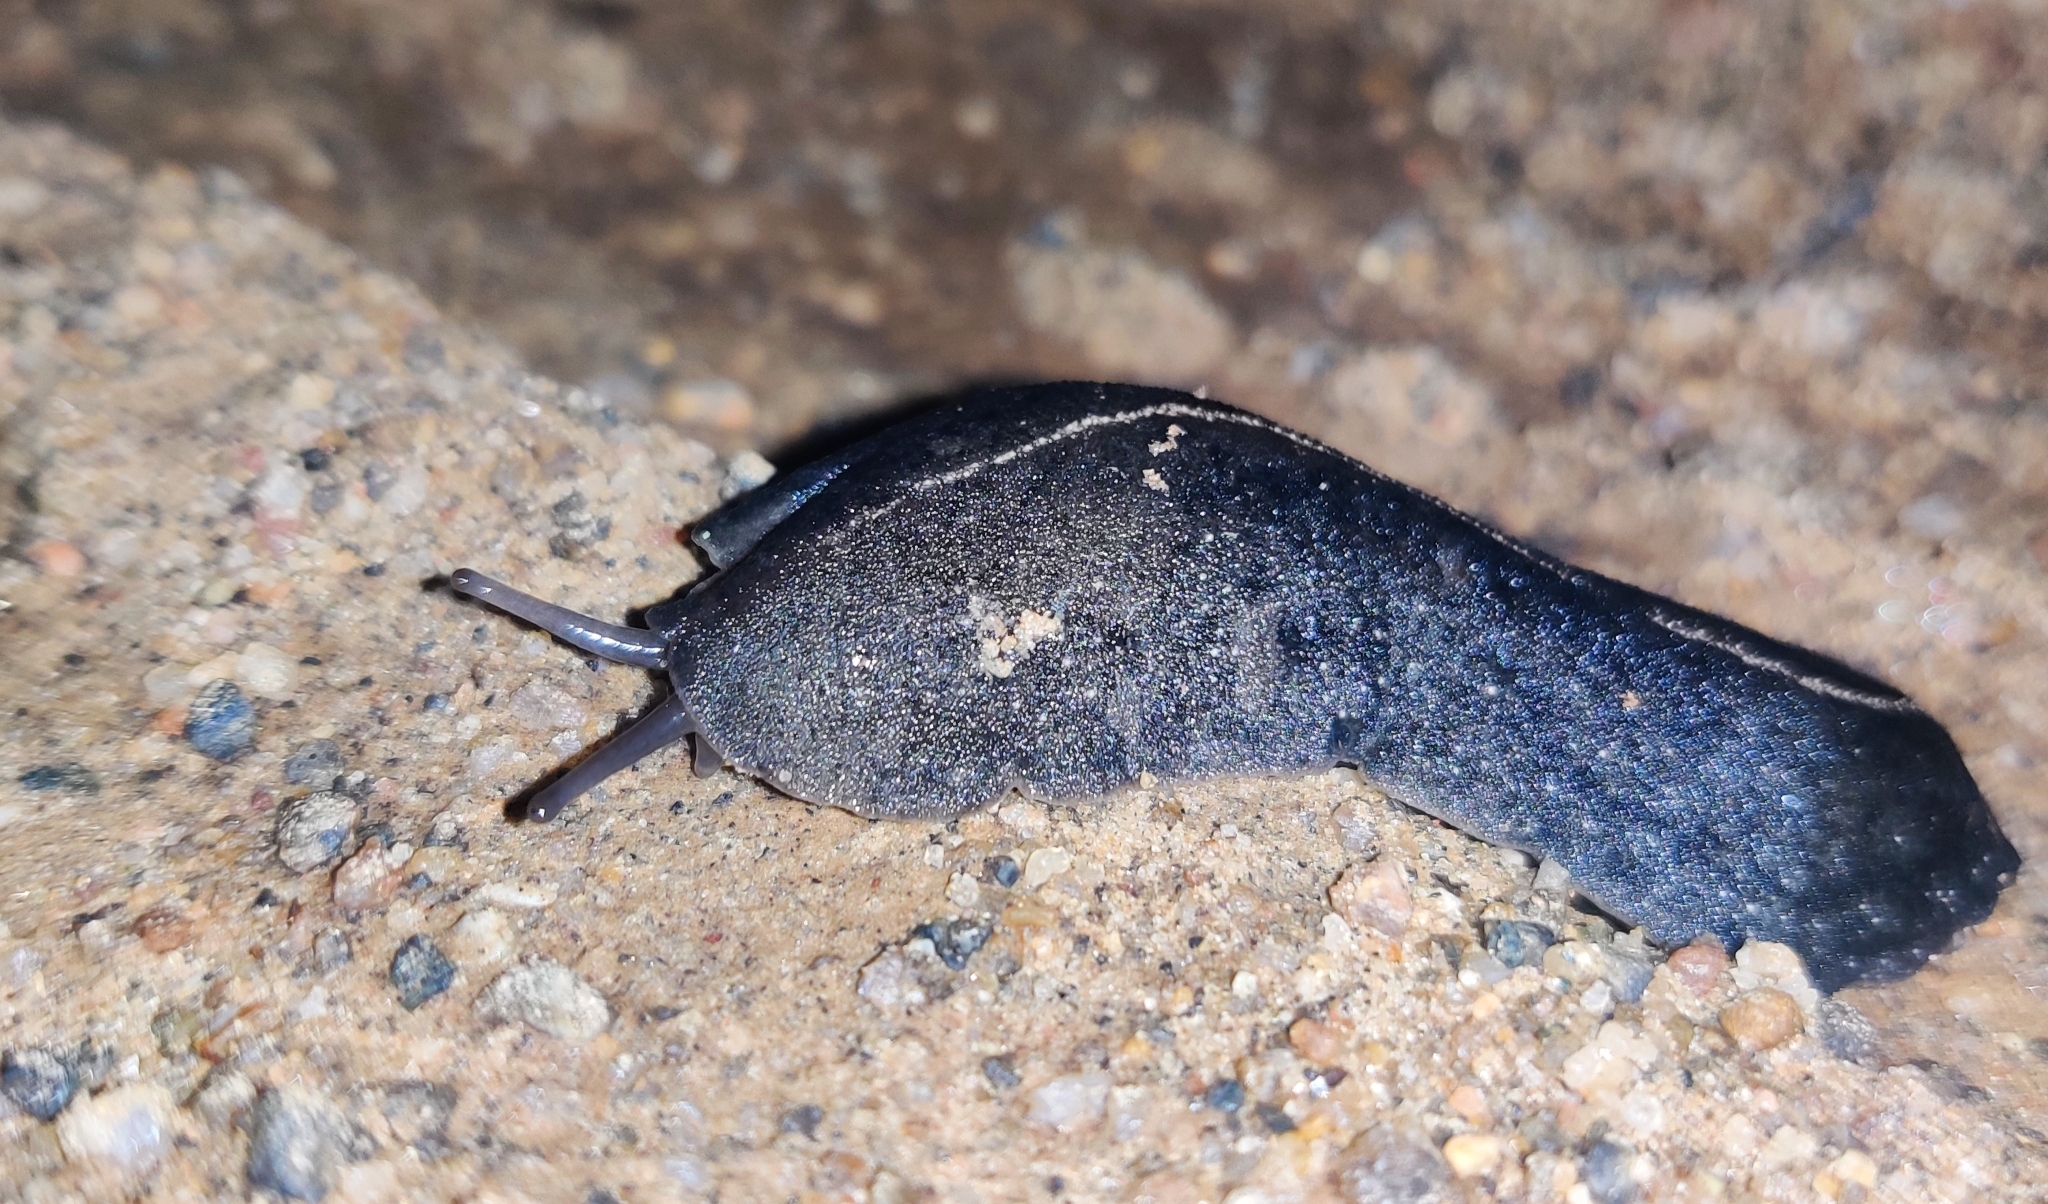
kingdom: Animalia
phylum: Mollusca
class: Gastropoda
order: Systellommatophora
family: Veronicellidae
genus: Laevicaulis
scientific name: Laevicaulis alte
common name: Tropical leatherleaf
